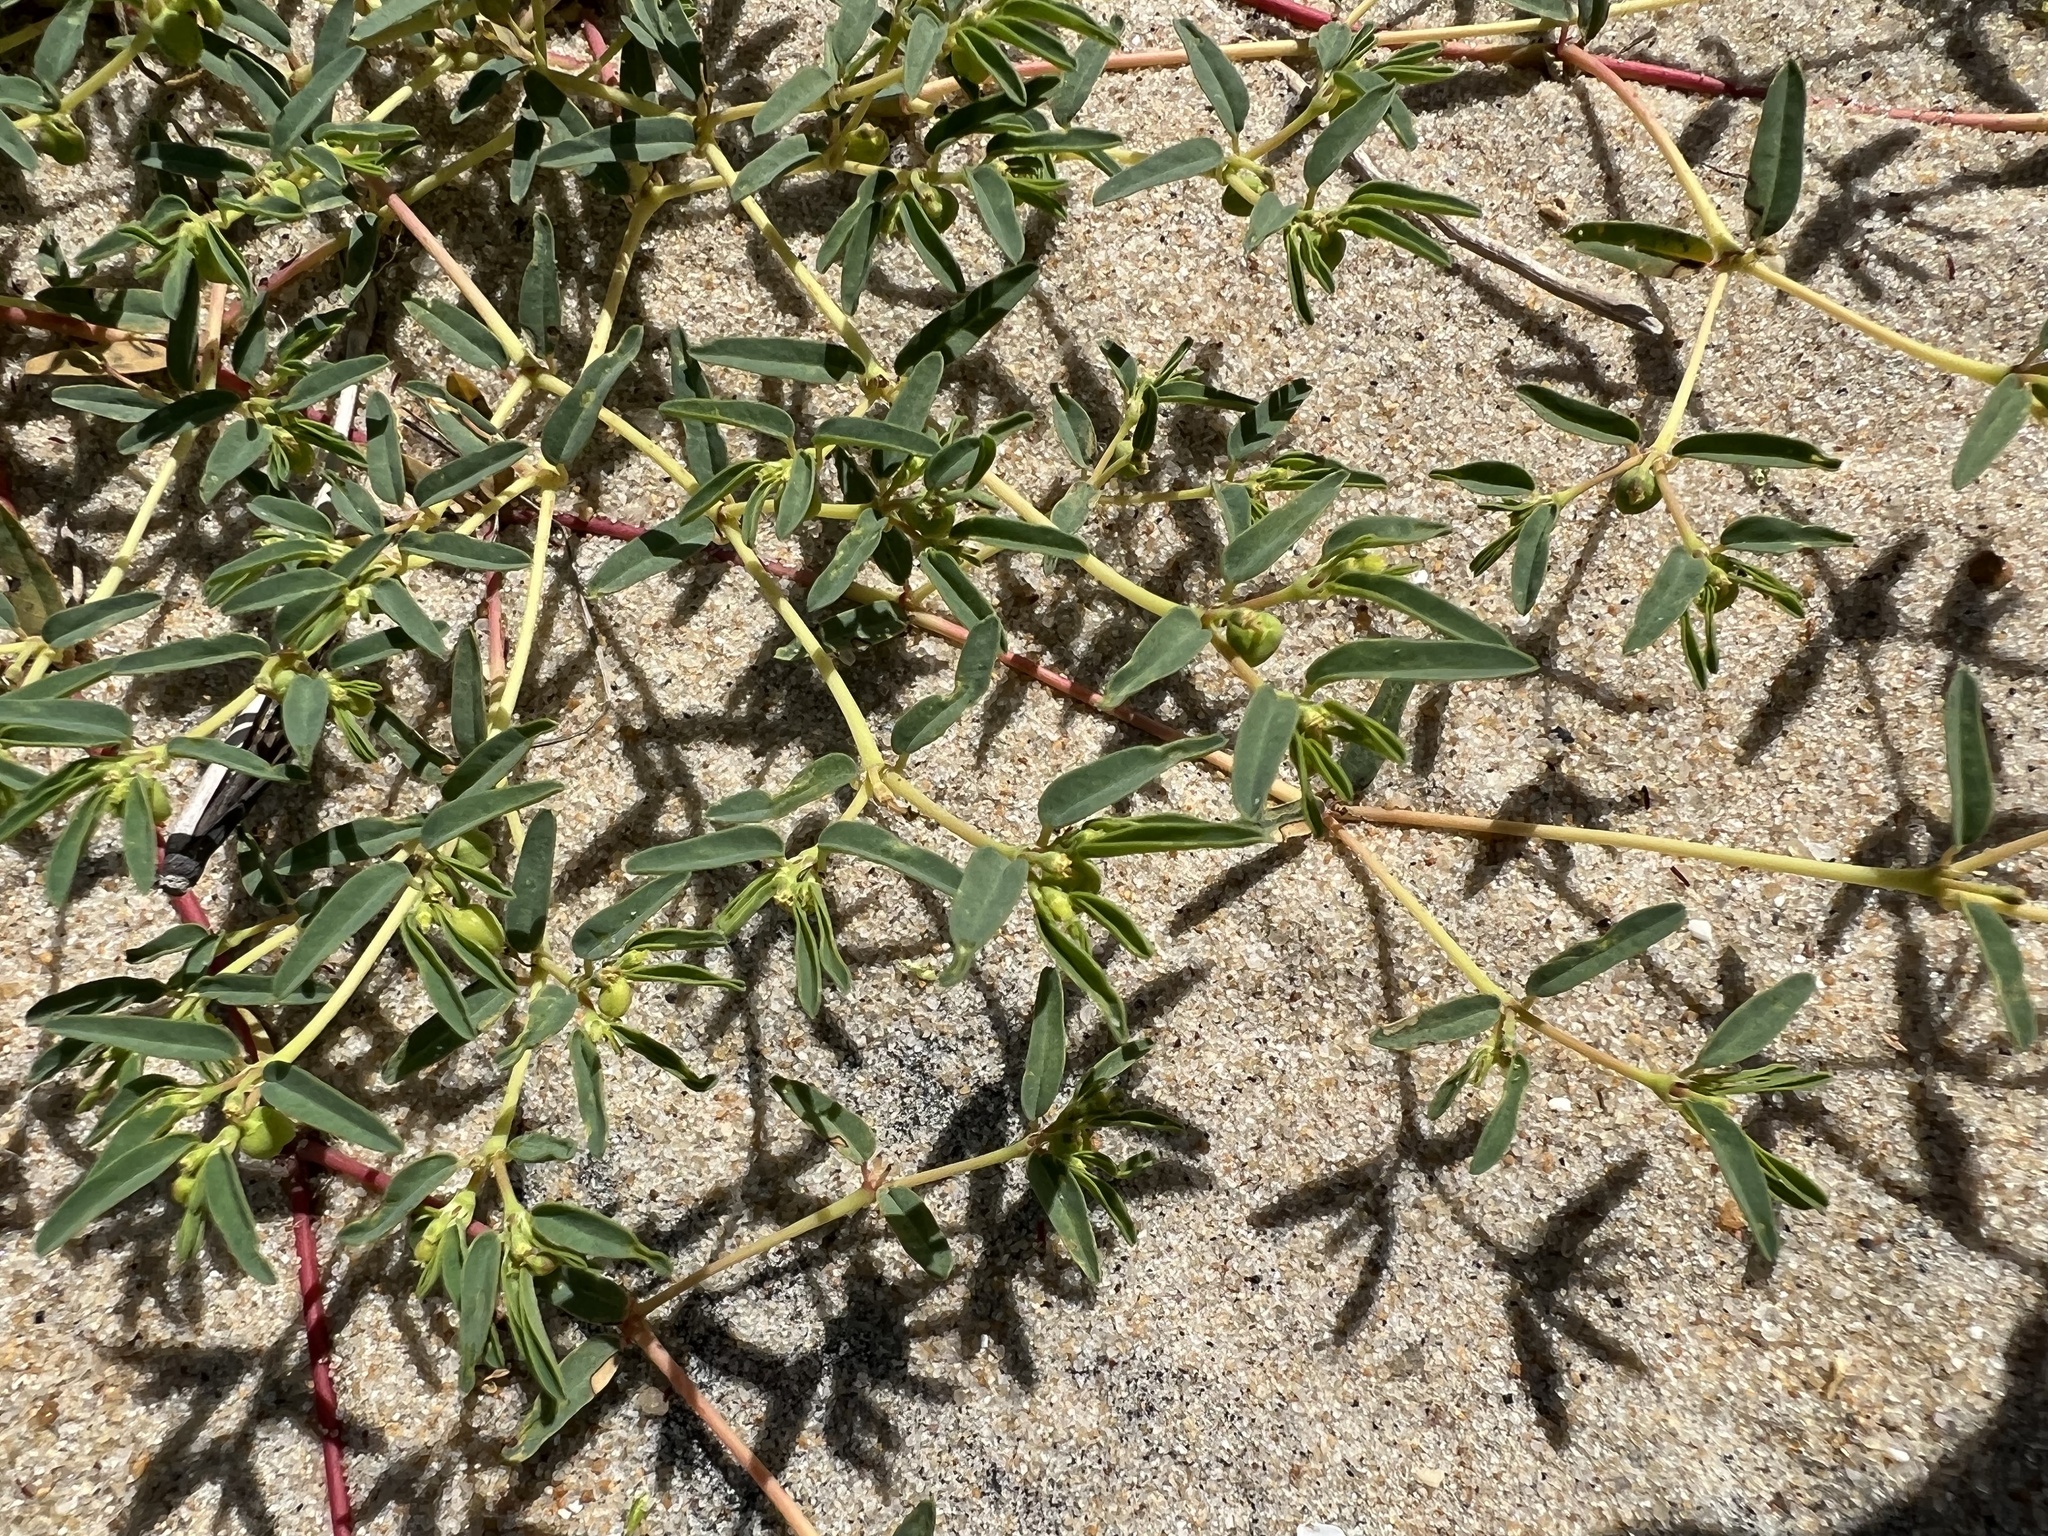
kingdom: Plantae
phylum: Tracheophyta
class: Magnoliopsida
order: Malpighiales
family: Euphorbiaceae
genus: Euphorbia
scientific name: Euphorbia polygonifolia
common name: Knotweed spurge
